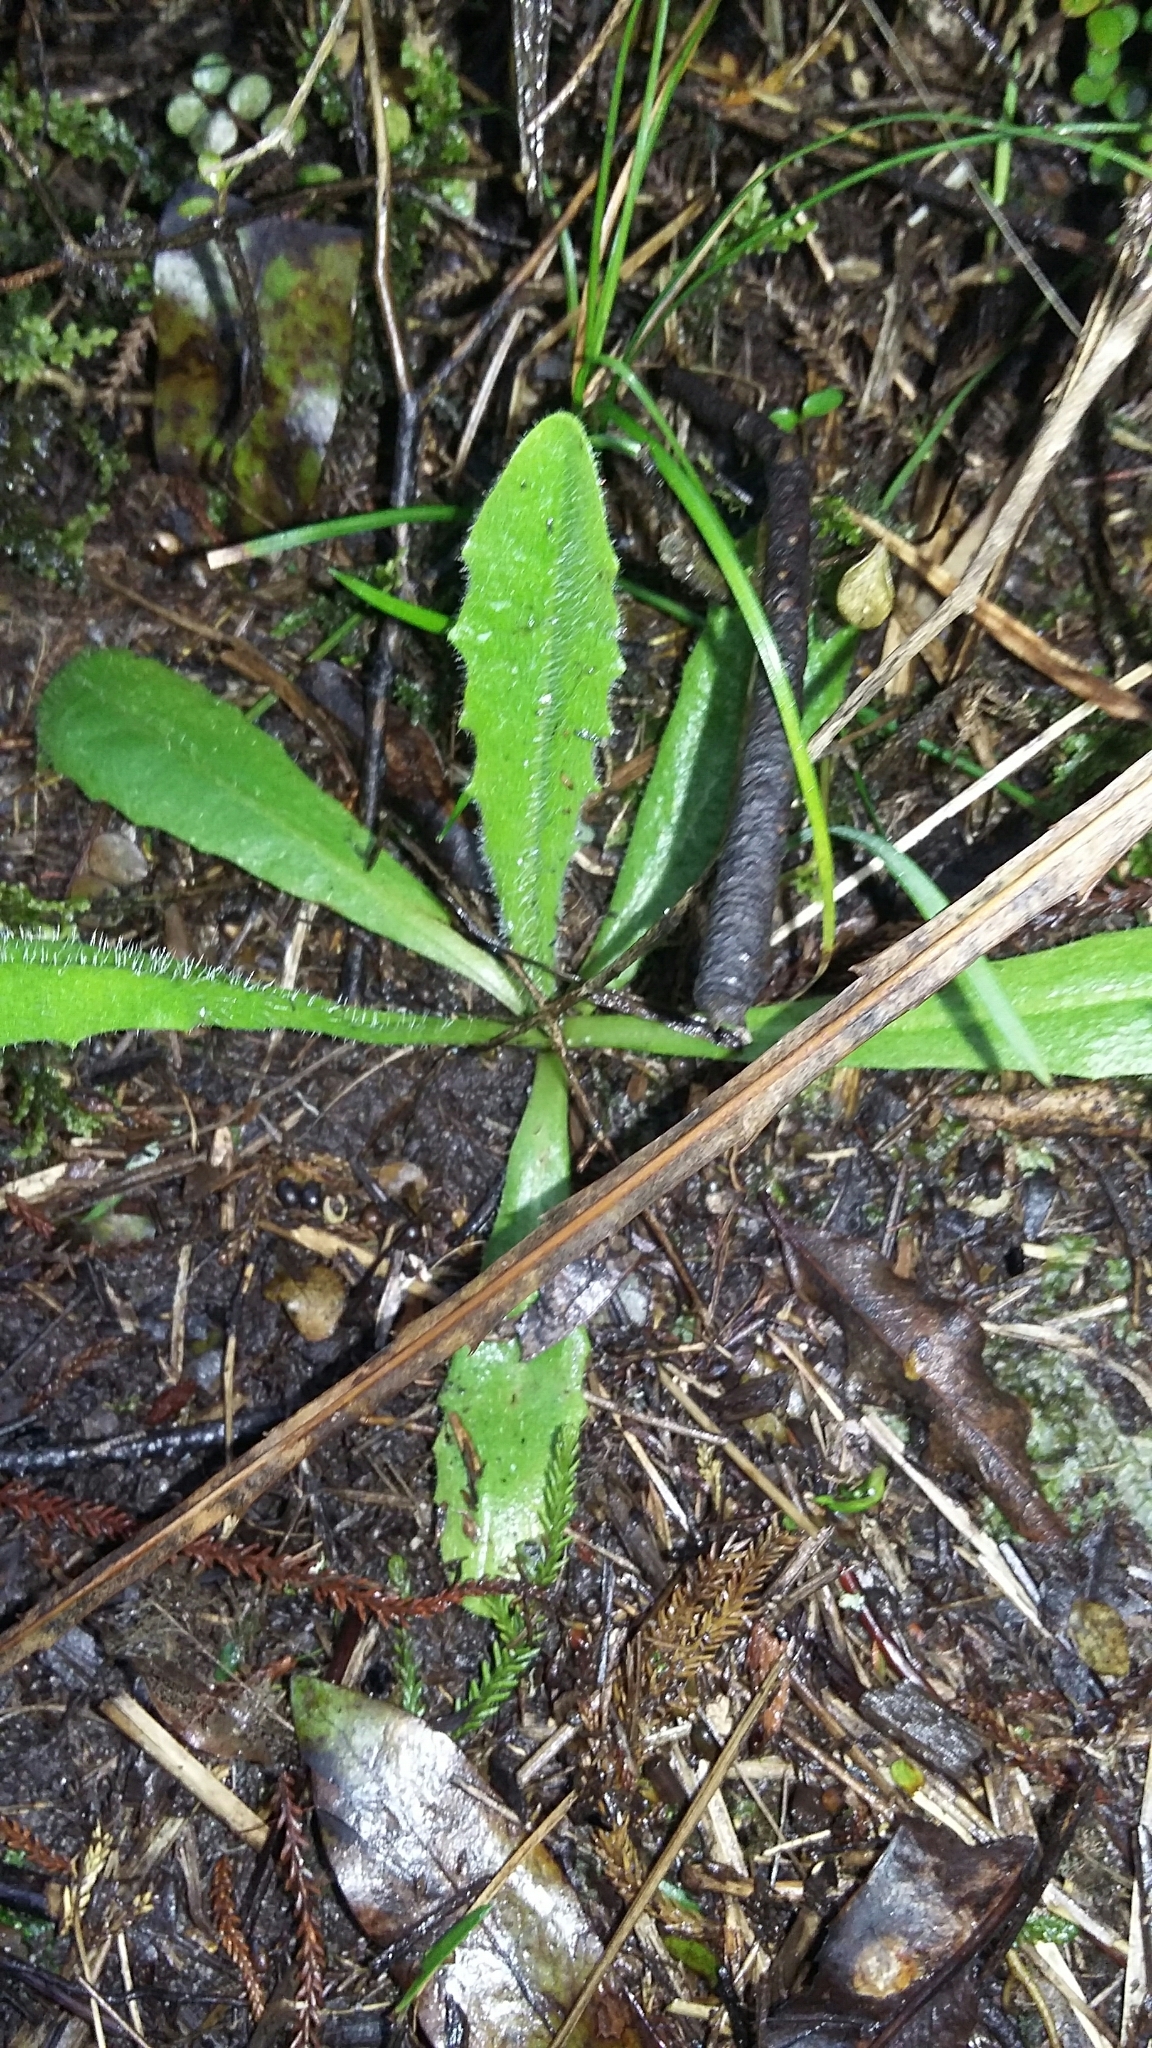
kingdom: Plantae
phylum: Tracheophyta
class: Magnoliopsida
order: Asterales
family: Asteraceae
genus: Hypochaeris
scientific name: Hypochaeris radicata
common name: Flatweed
